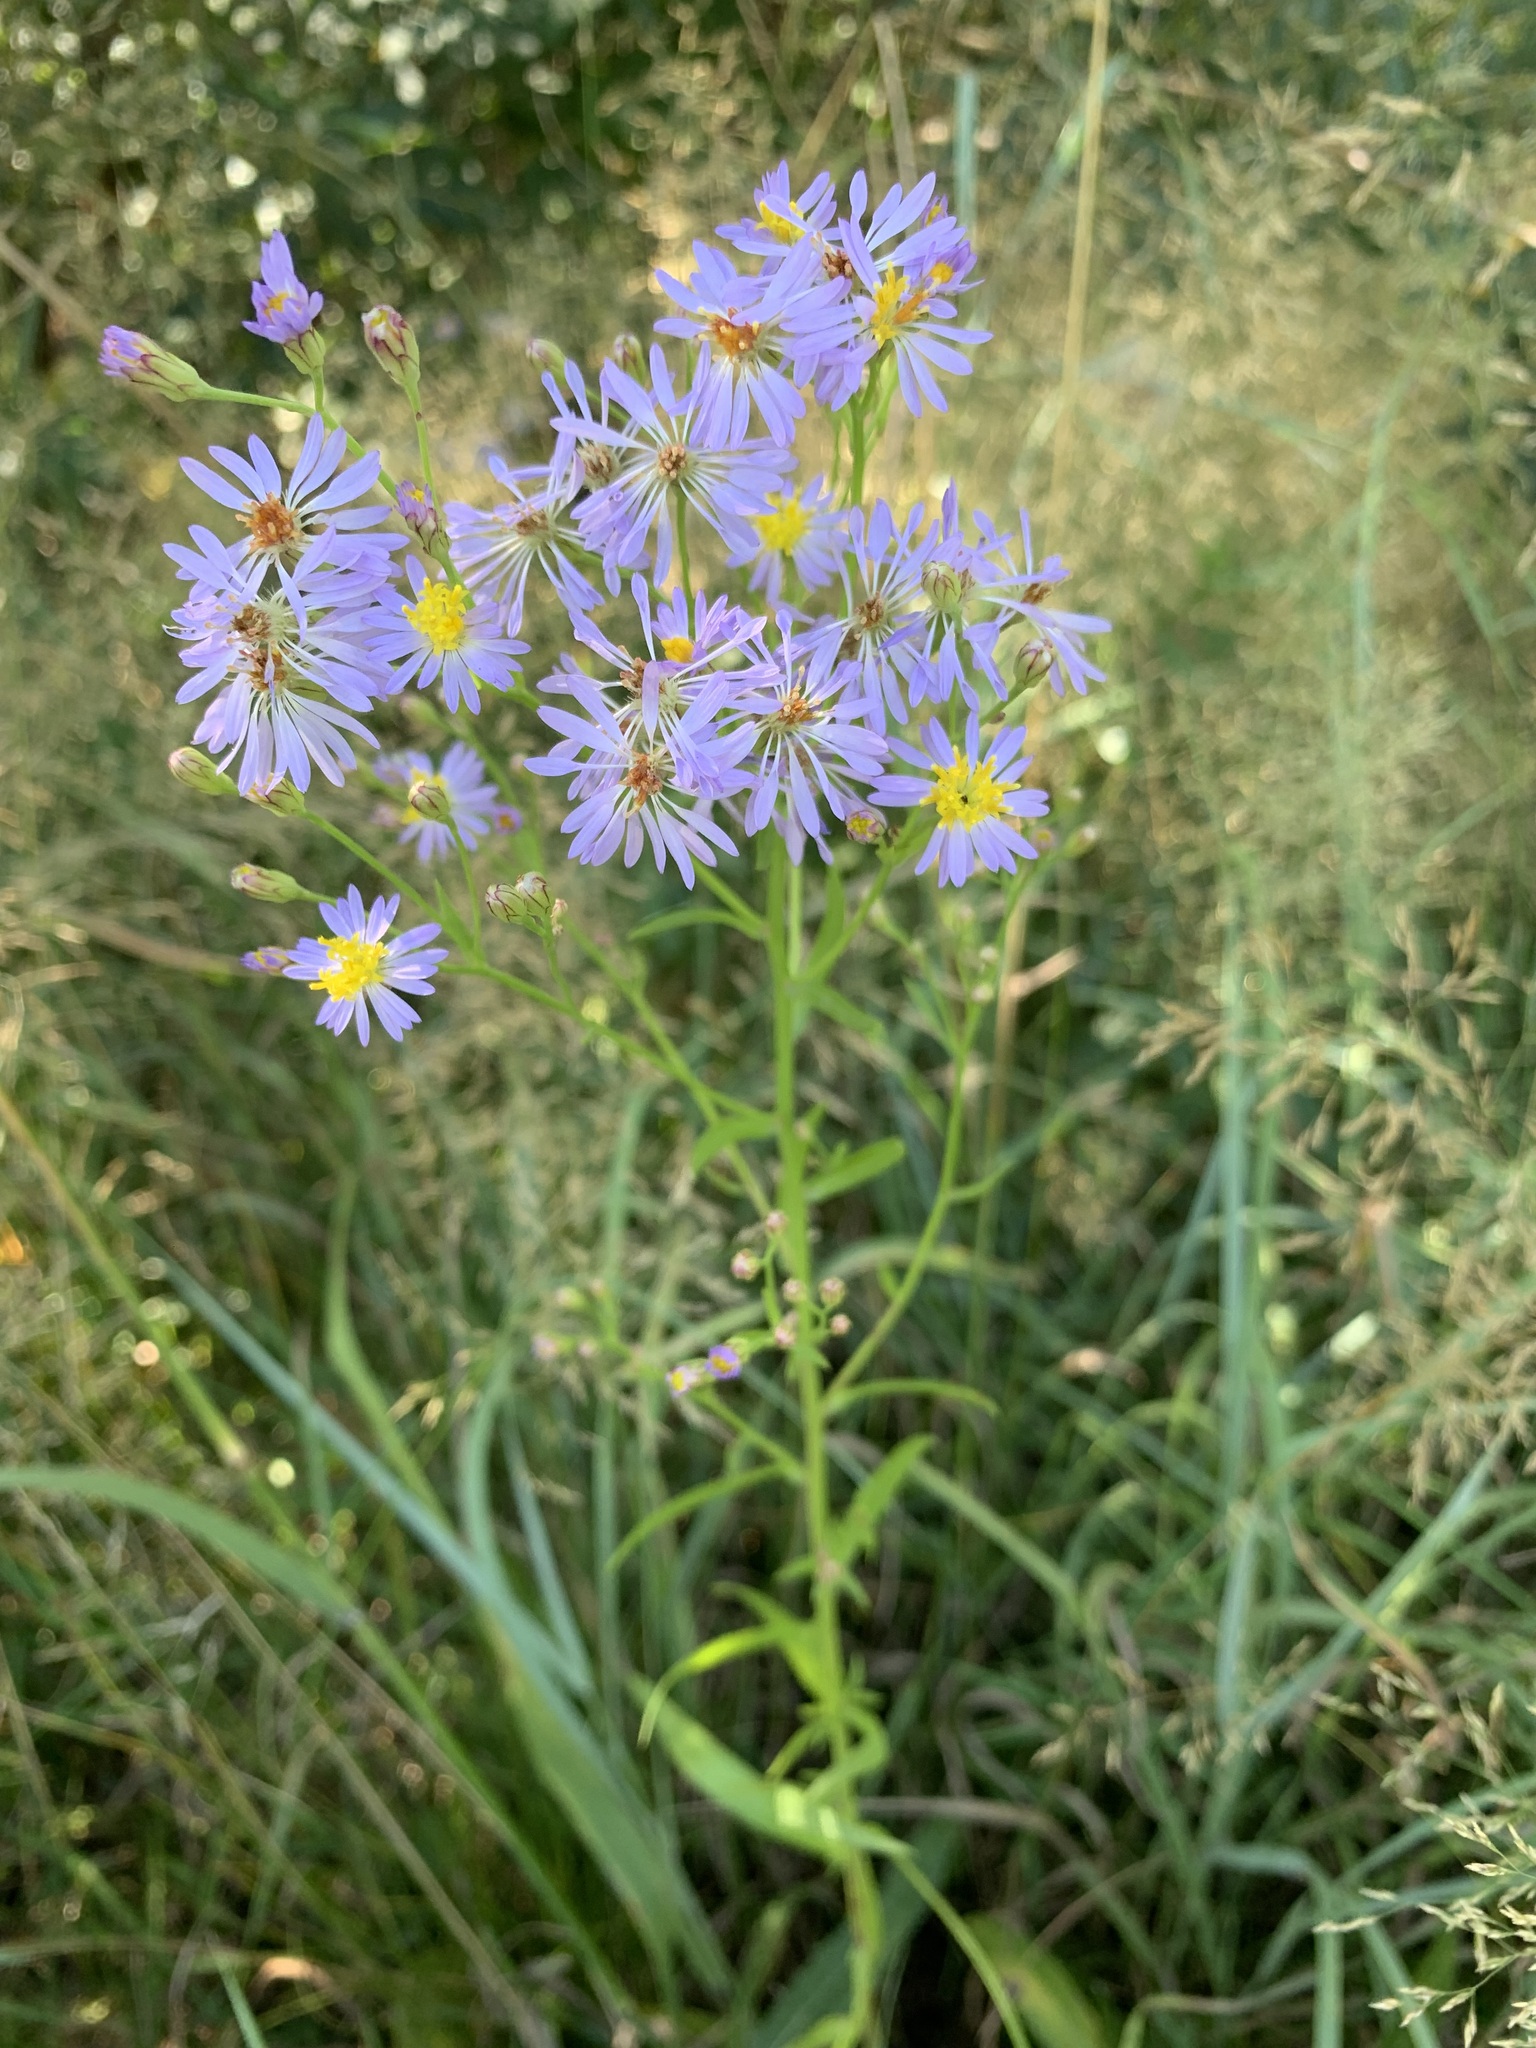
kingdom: Plantae
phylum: Tracheophyta
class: Magnoliopsida
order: Asterales
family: Asteraceae
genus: Tripolium
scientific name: Tripolium pannonicum
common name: Sea aster
